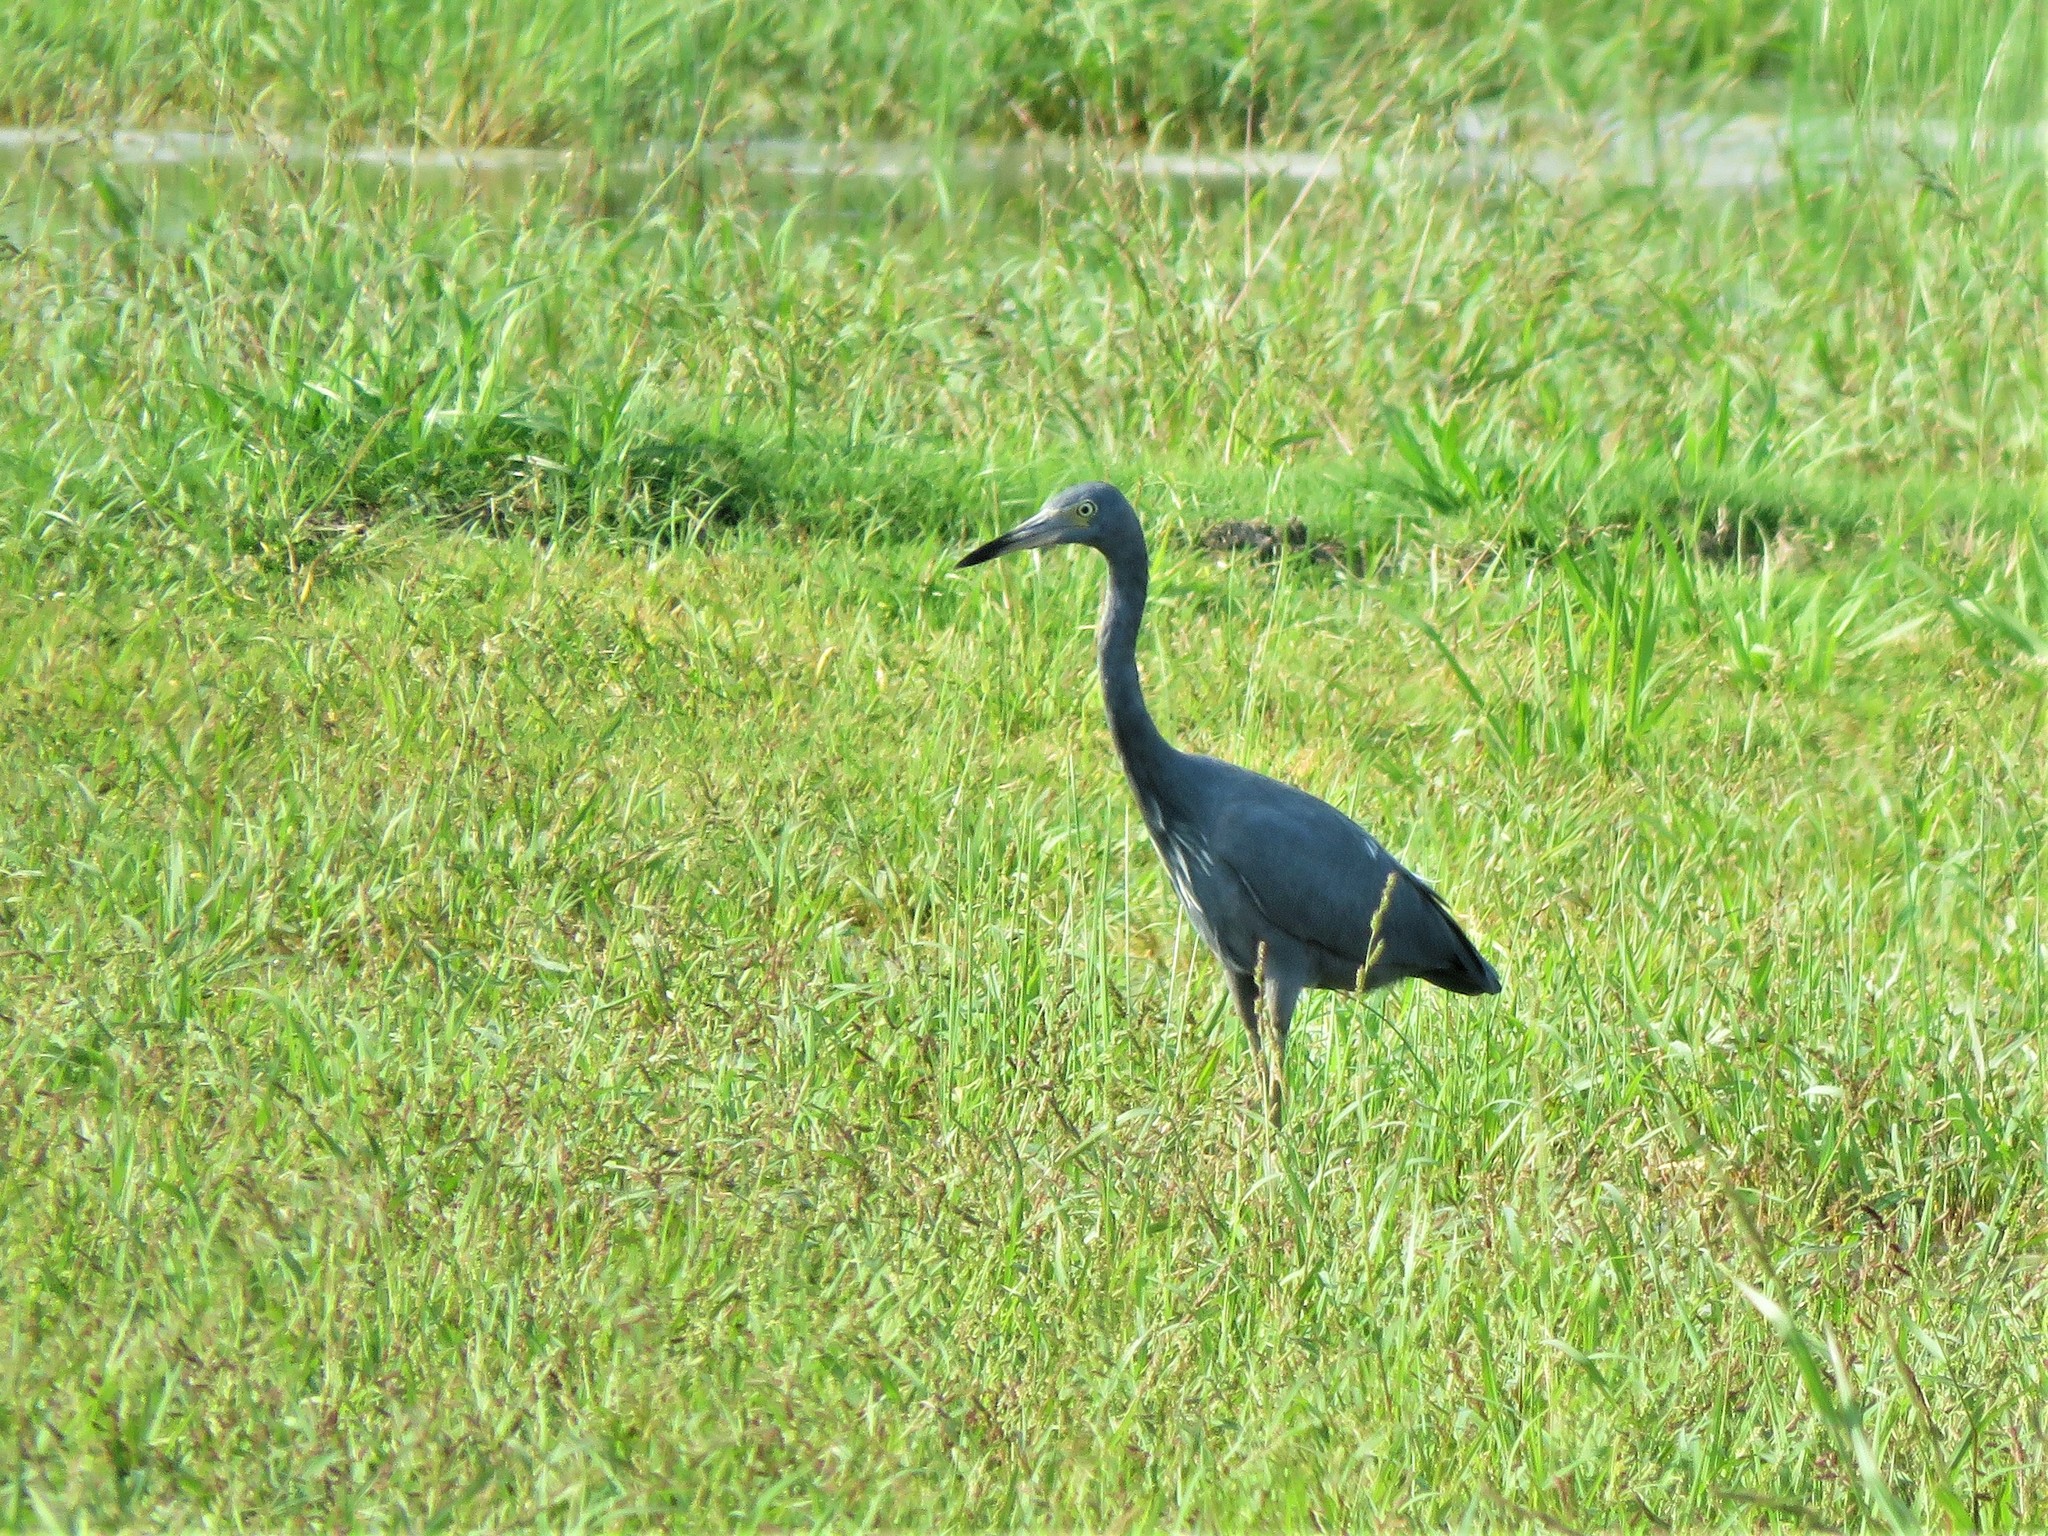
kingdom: Animalia
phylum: Chordata
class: Aves
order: Pelecaniformes
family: Ardeidae
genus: Egretta
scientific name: Egretta caerulea
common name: Little blue heron
